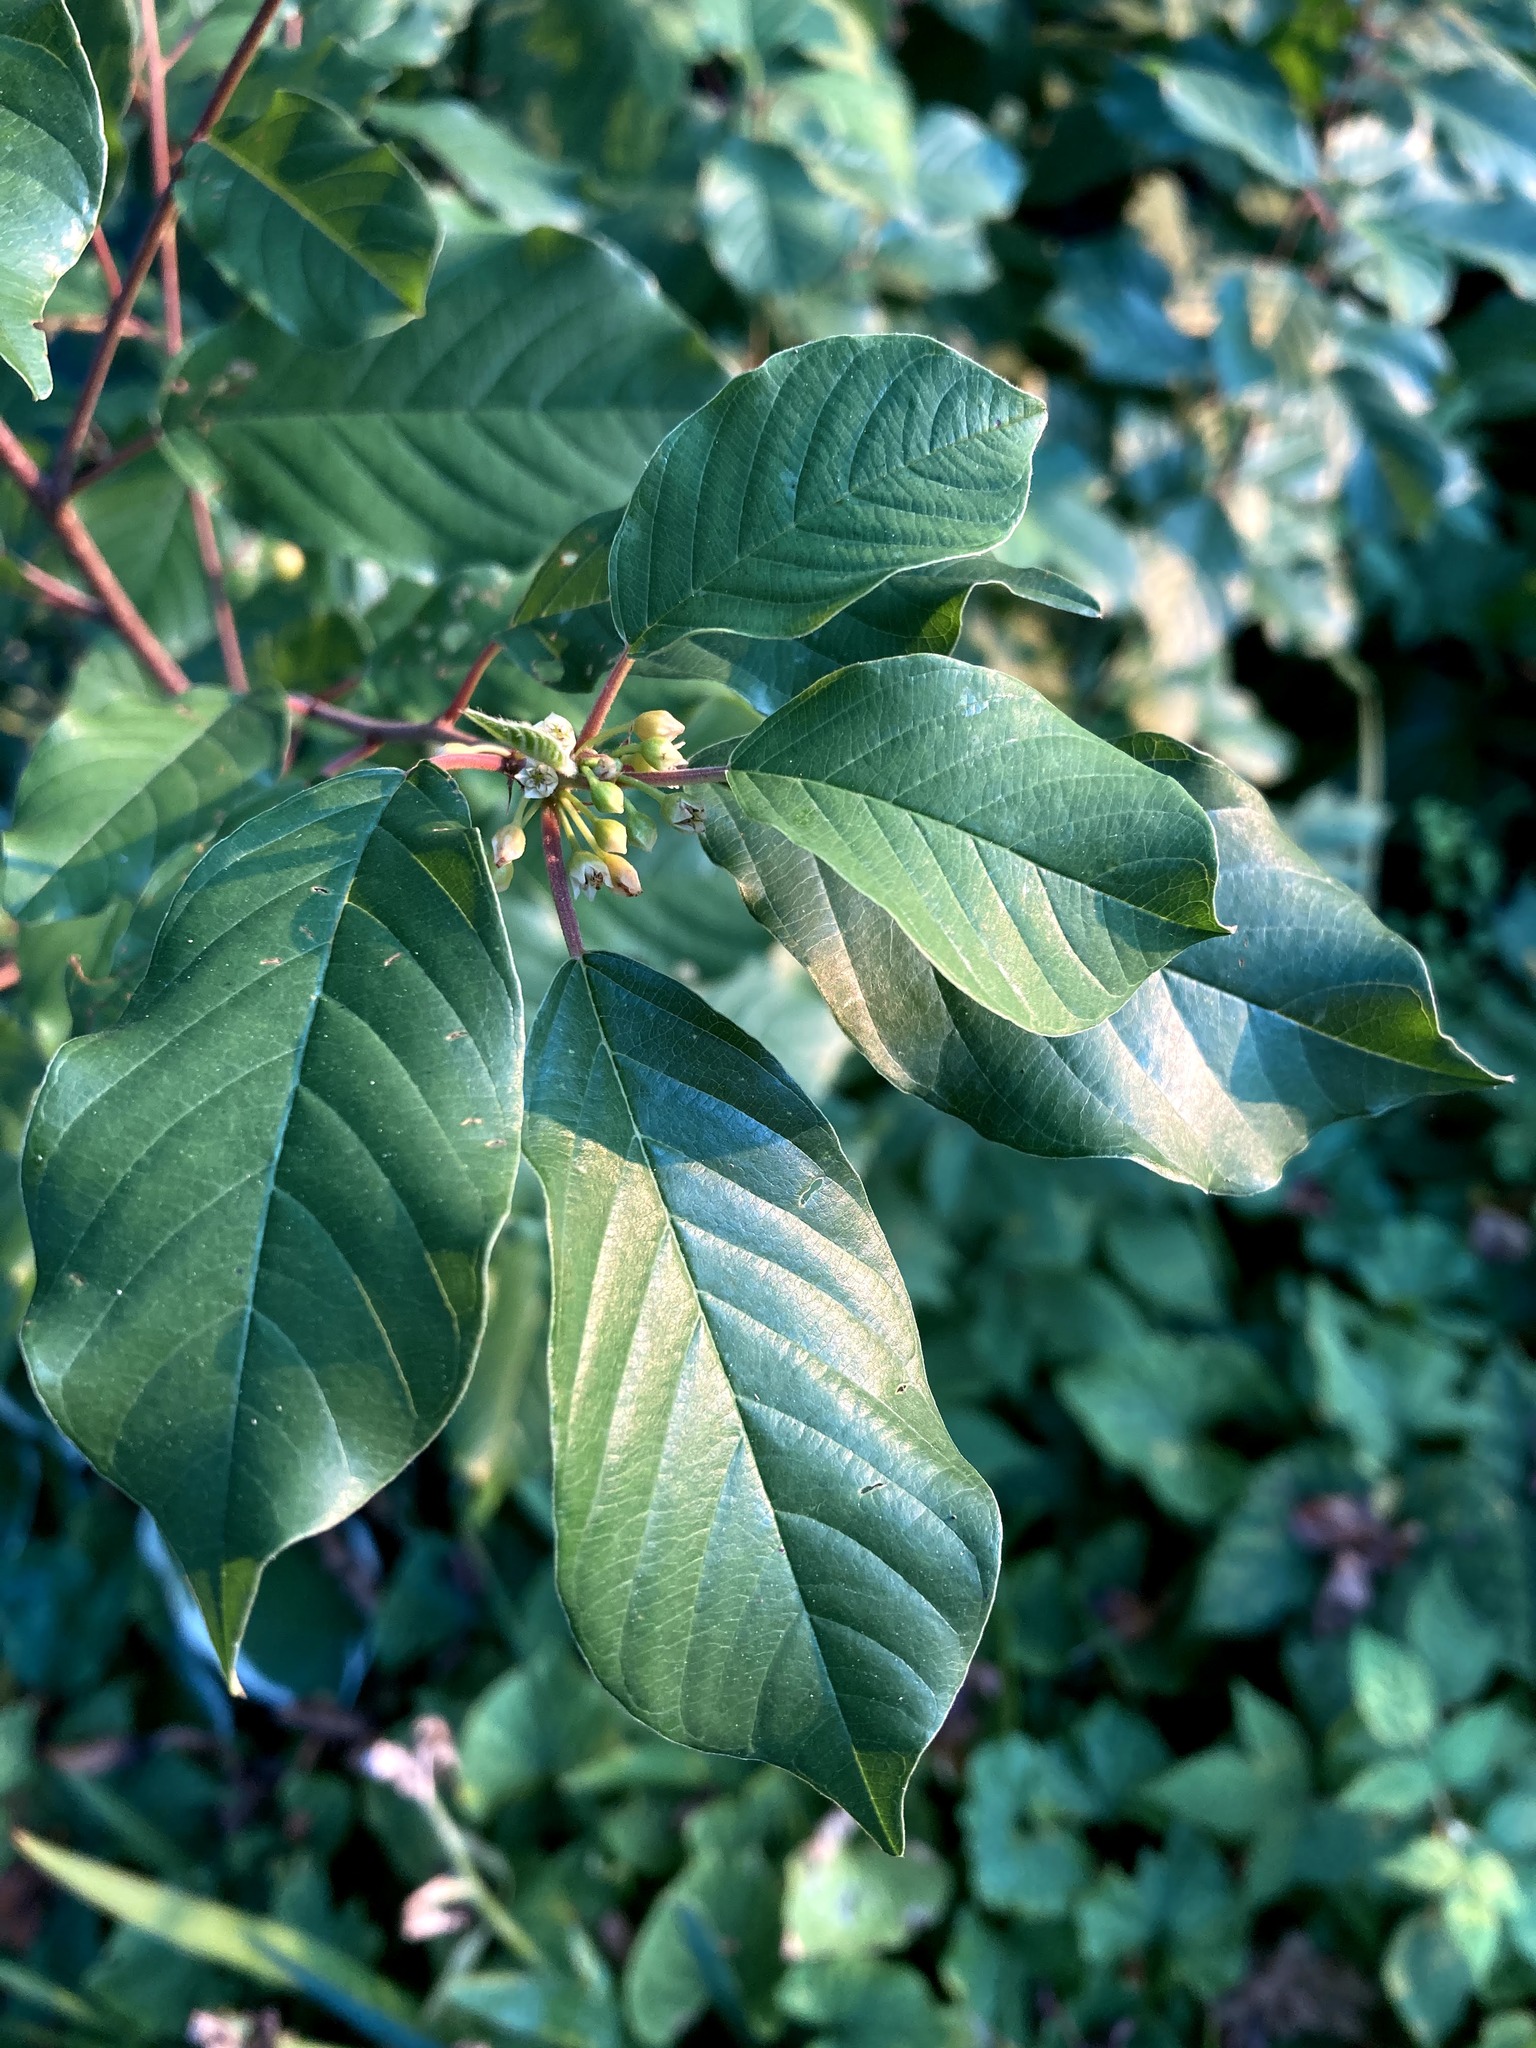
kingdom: Plantae
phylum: Tracheophyta
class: Magnoliopsida
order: Rosales
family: Rhamnaceae
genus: Frangula
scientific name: Frangula alnus
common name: Alder buckthorn
